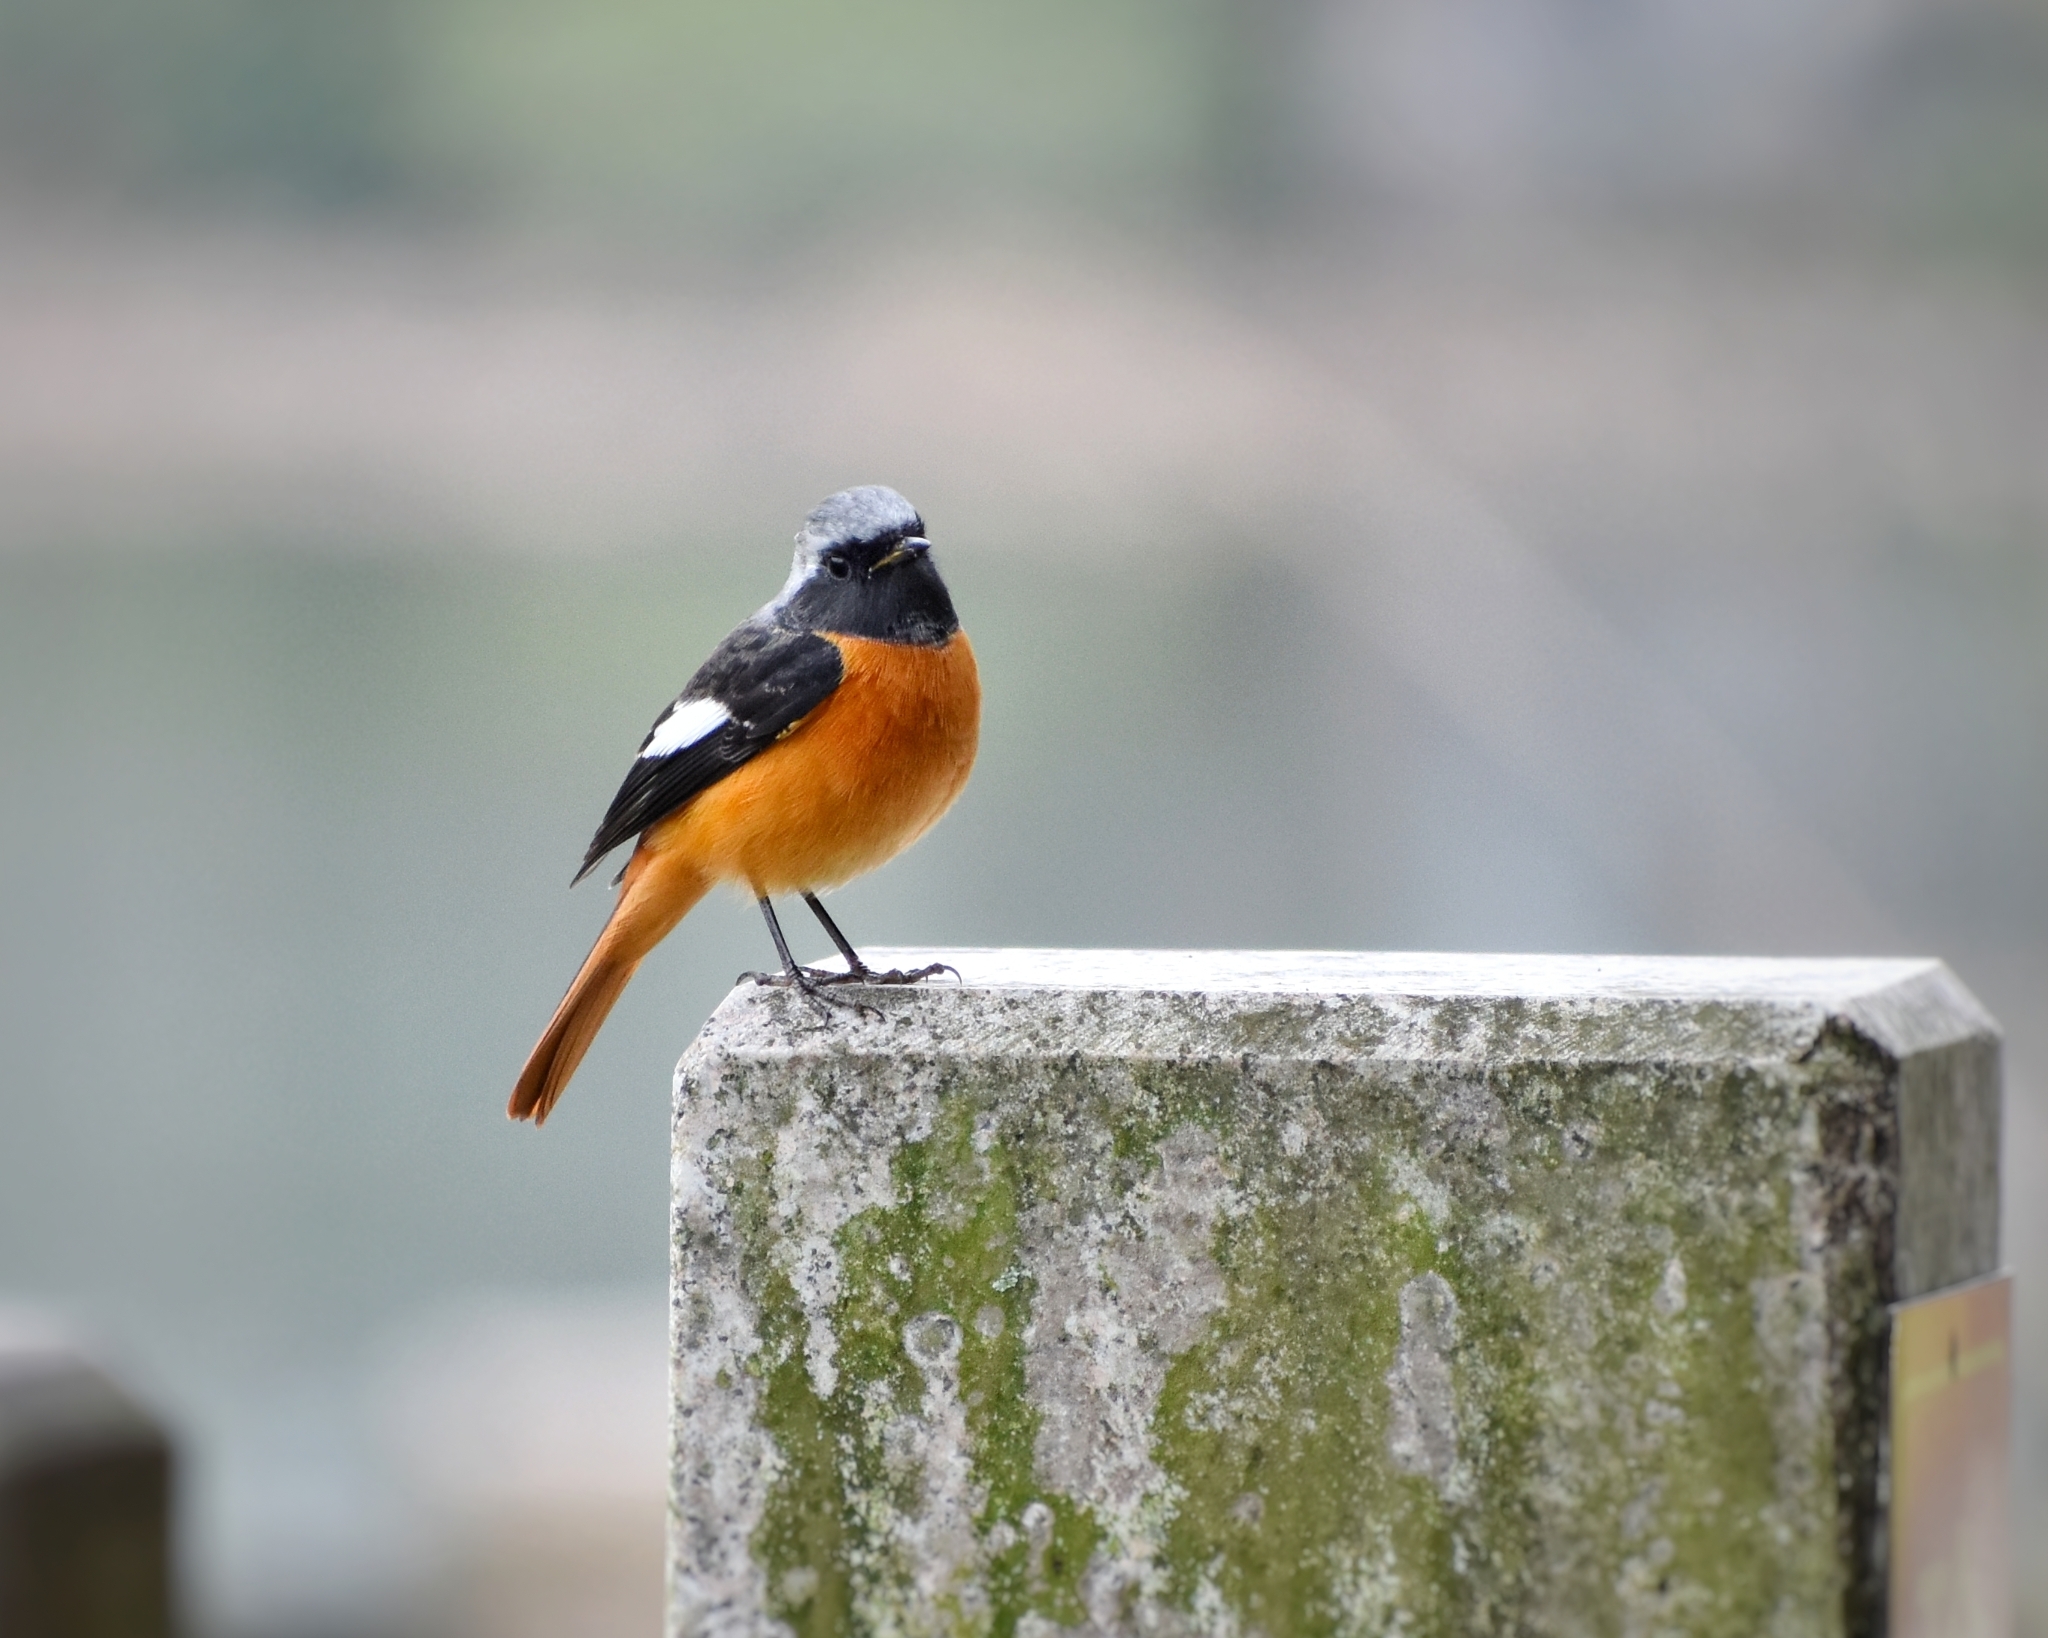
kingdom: Animalia
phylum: Chordata
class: Aves
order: Passeriformes
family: Muscicapidae
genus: Phoenicurus
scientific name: Phoenicurus auroreus
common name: Daurian redstart
